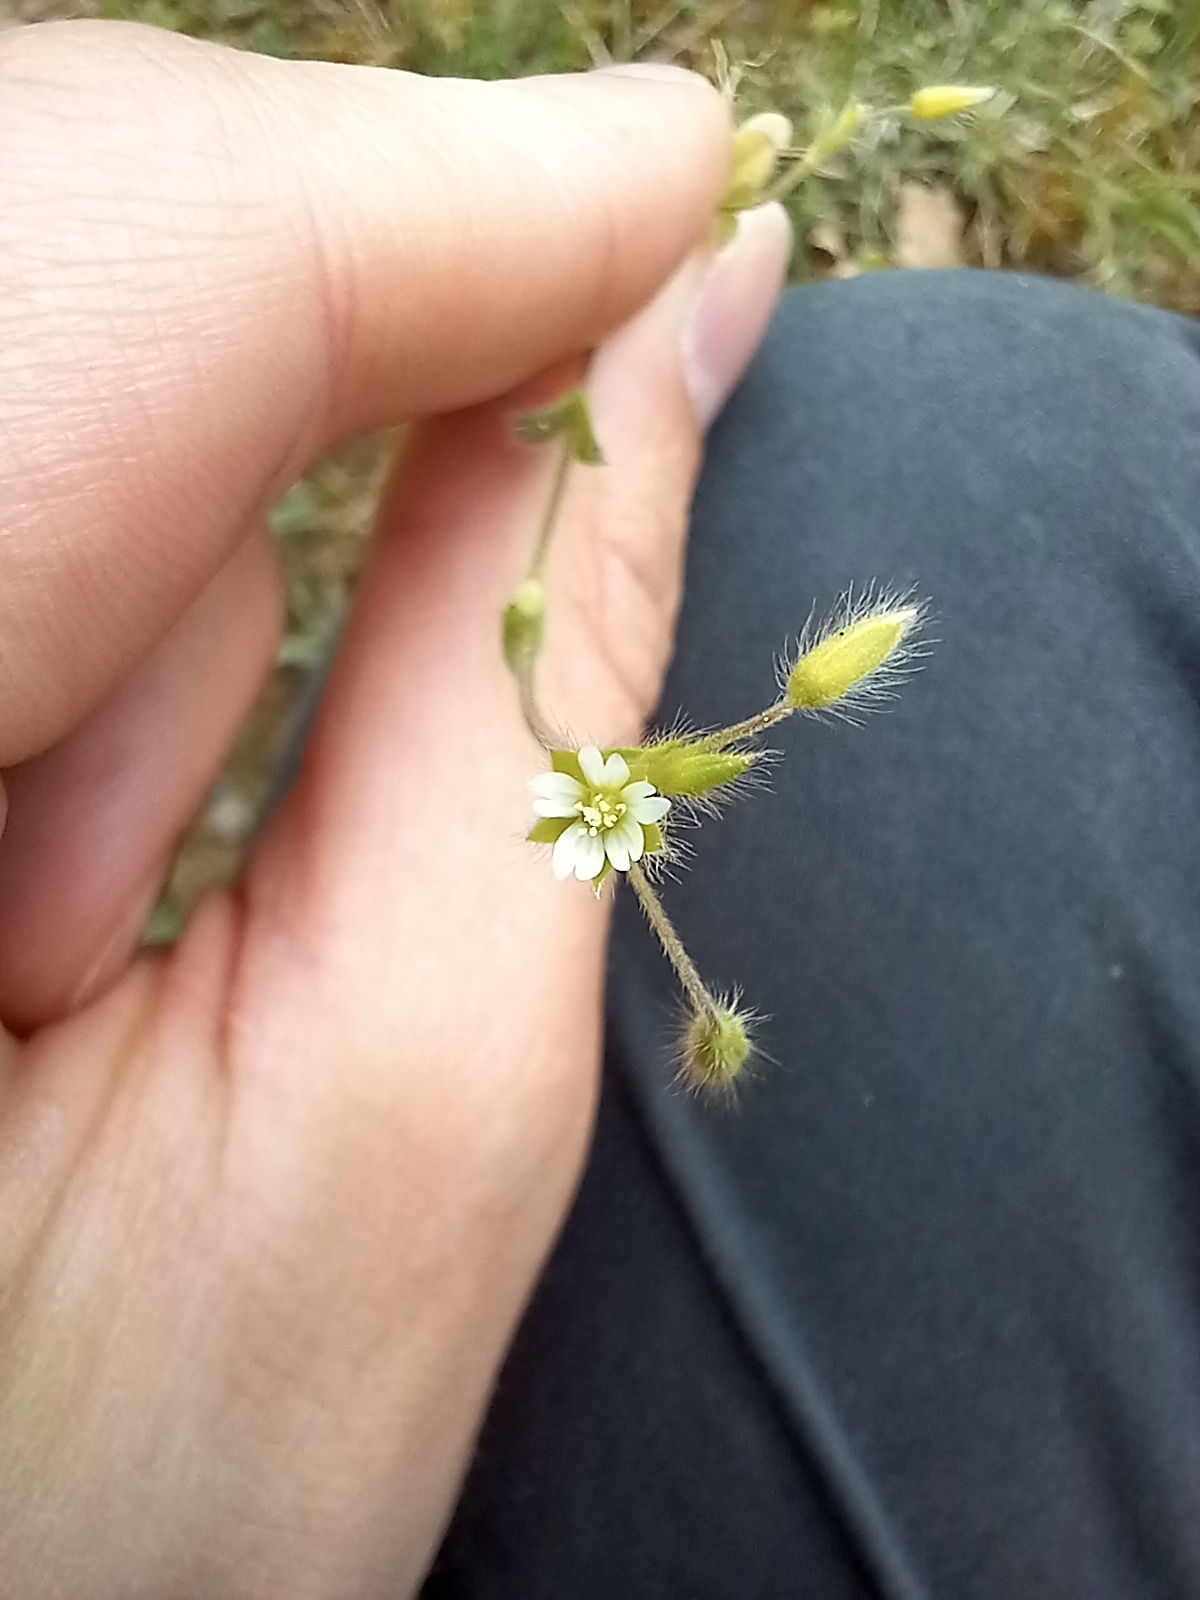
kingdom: Plantae
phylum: Tracheophyta
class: Magnoliopsida
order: Caryophyllales
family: Caryophyllaceae
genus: Cerastium
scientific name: Cerastium brachypetalum
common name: Grey mouse-ear
